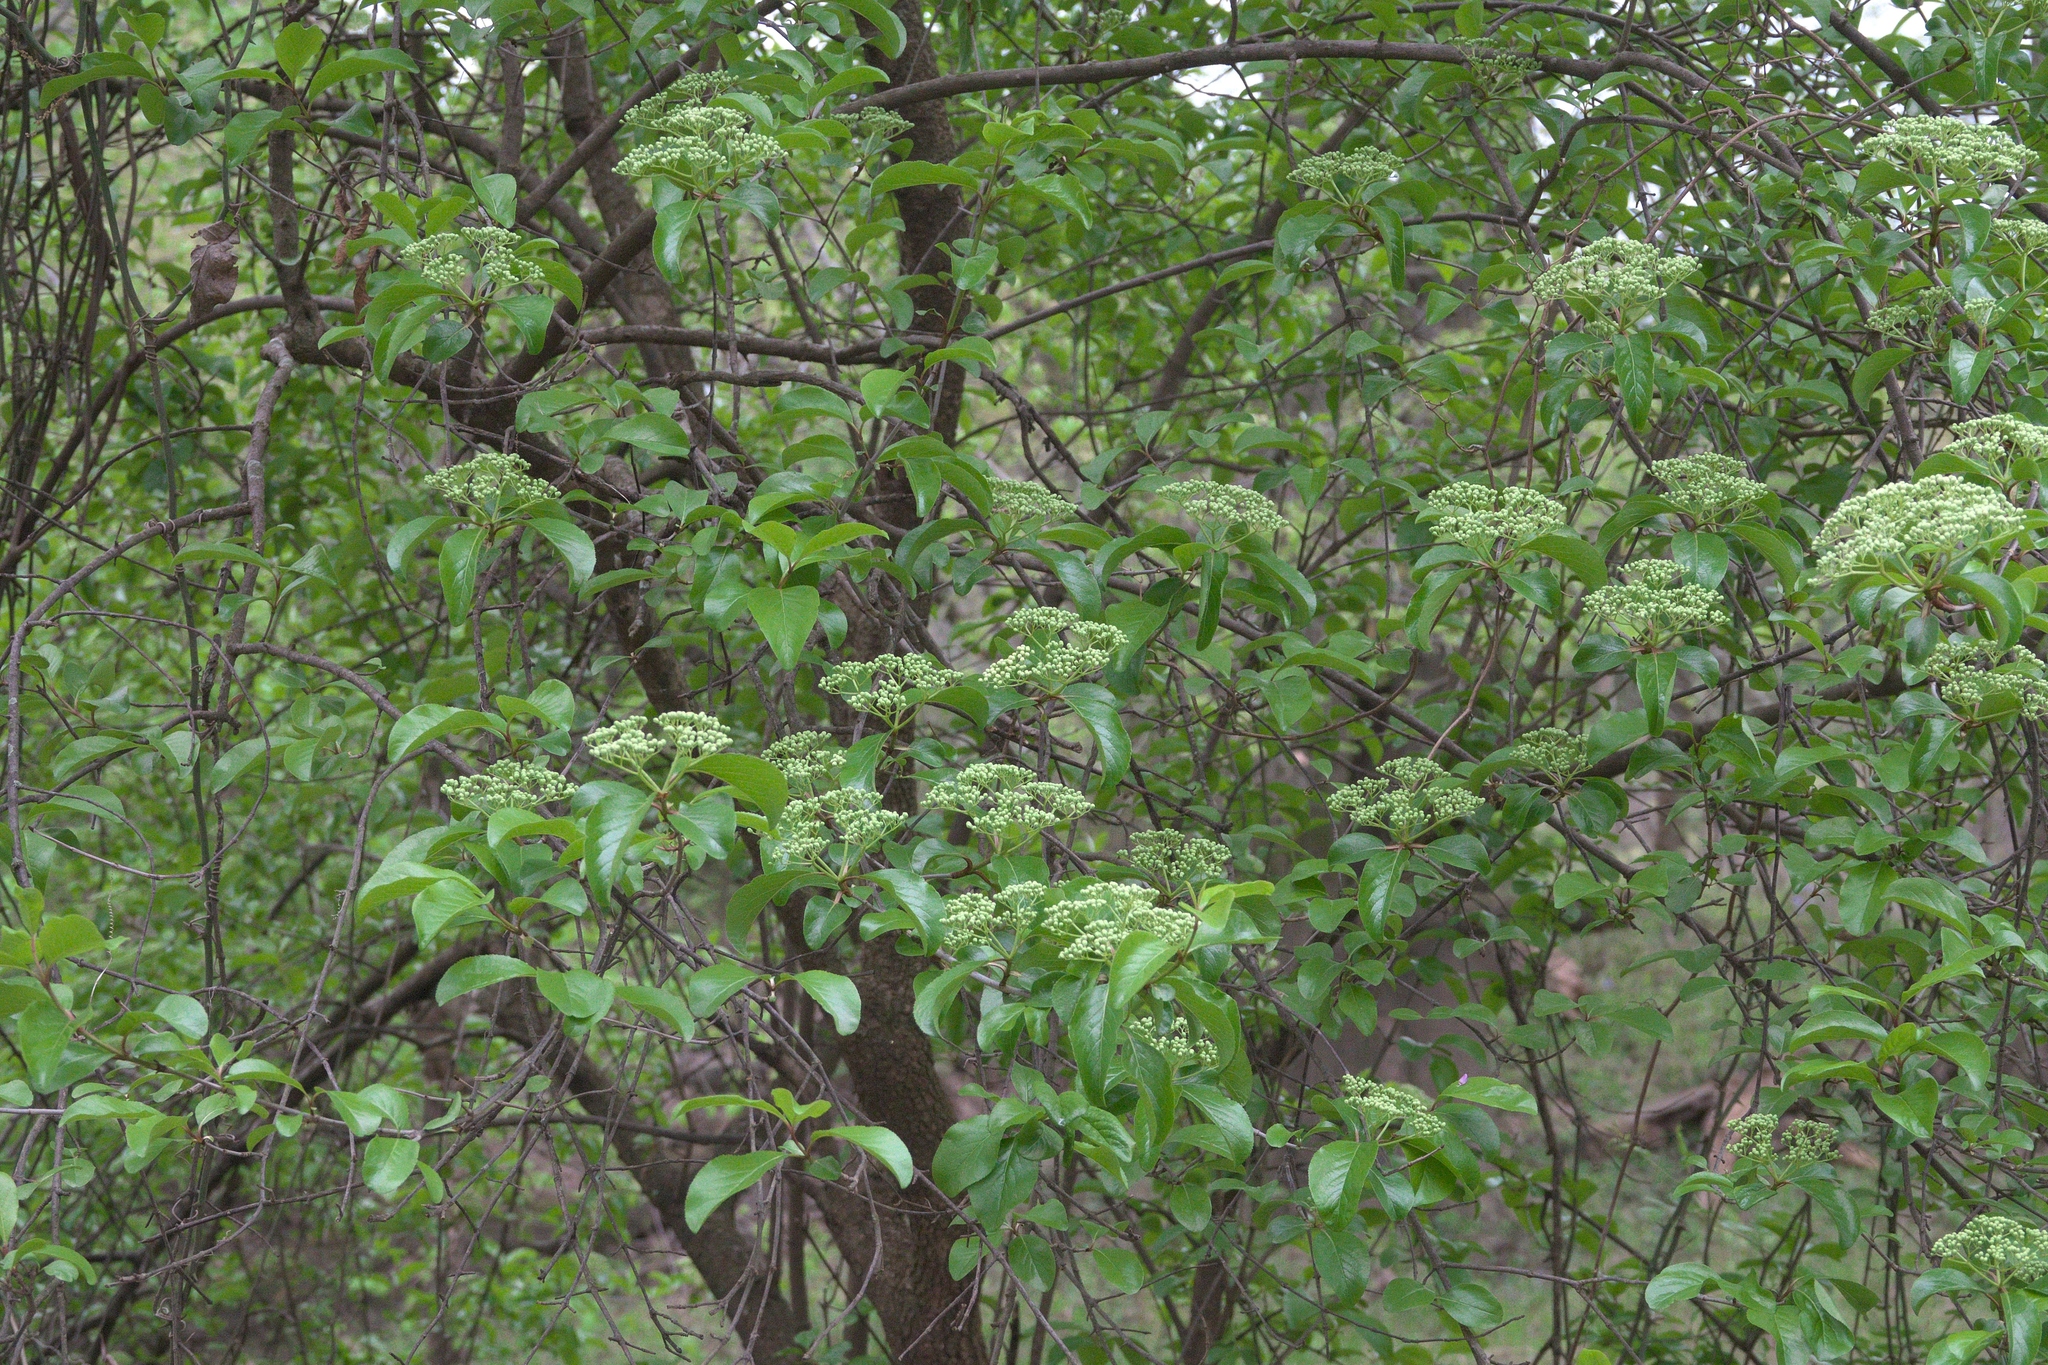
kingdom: Plantae
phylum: Tracheophyta
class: Magnoliopsida
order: Dipsacales
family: Viburnaceae
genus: Viburnum
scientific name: Viburnum rufidulum
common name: Blue haw
